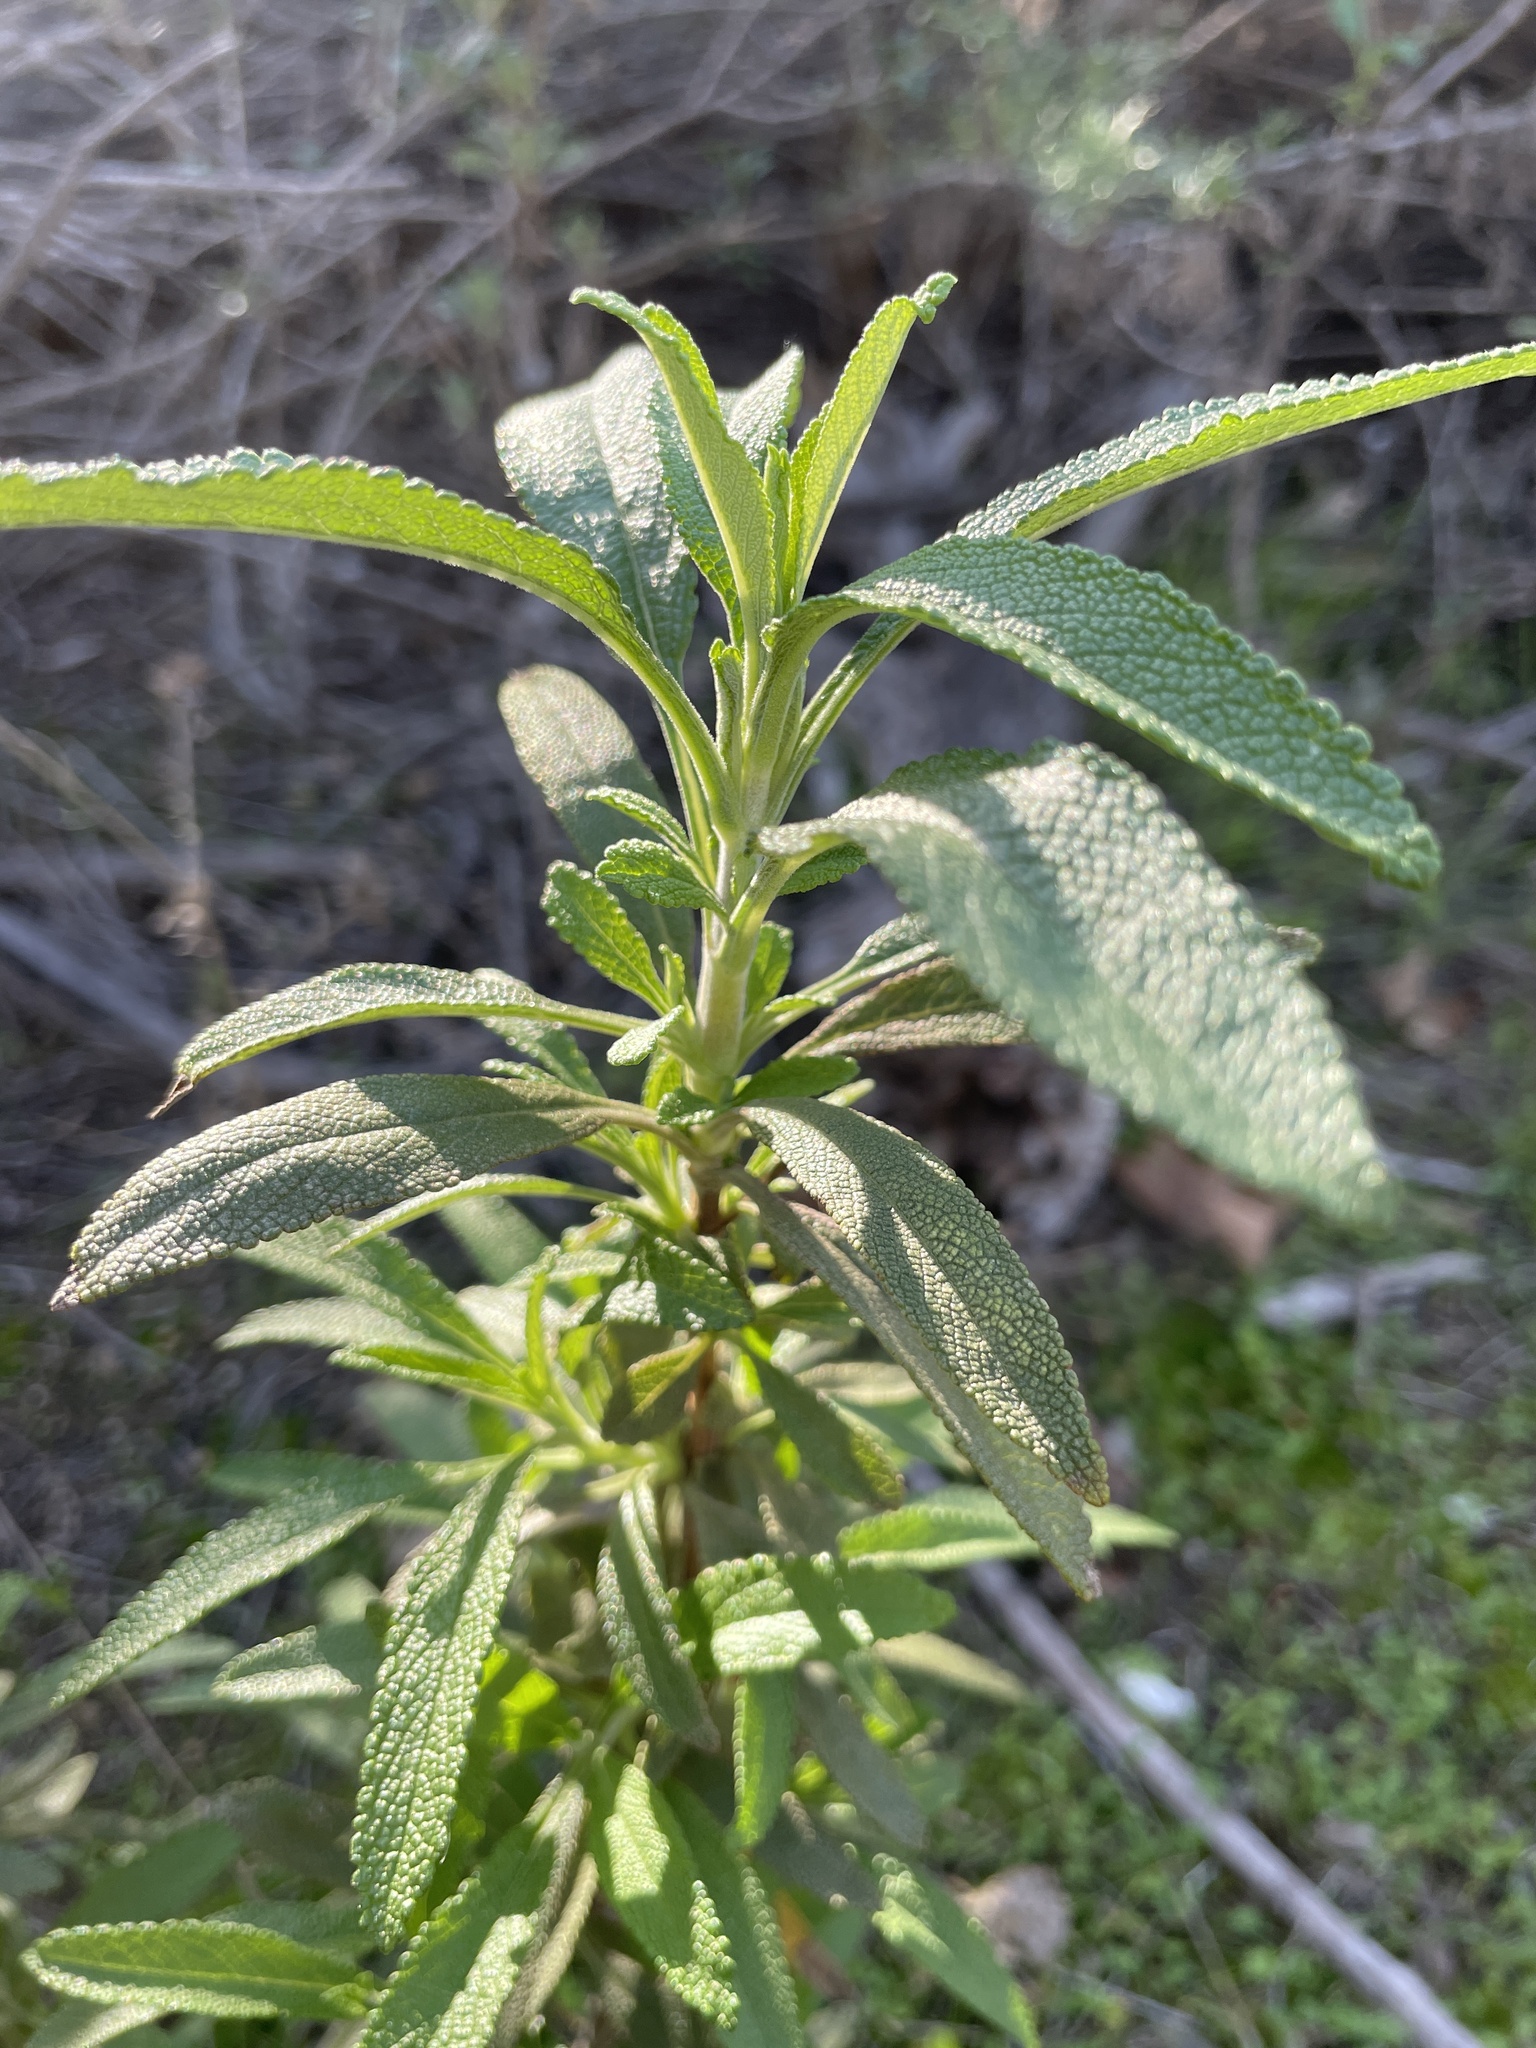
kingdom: Plantae
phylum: Tracheophyta
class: Magnoliopsida
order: Lamiales
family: Lamiaceae
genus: Salvia
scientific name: Salvia mellifera
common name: Black sage
